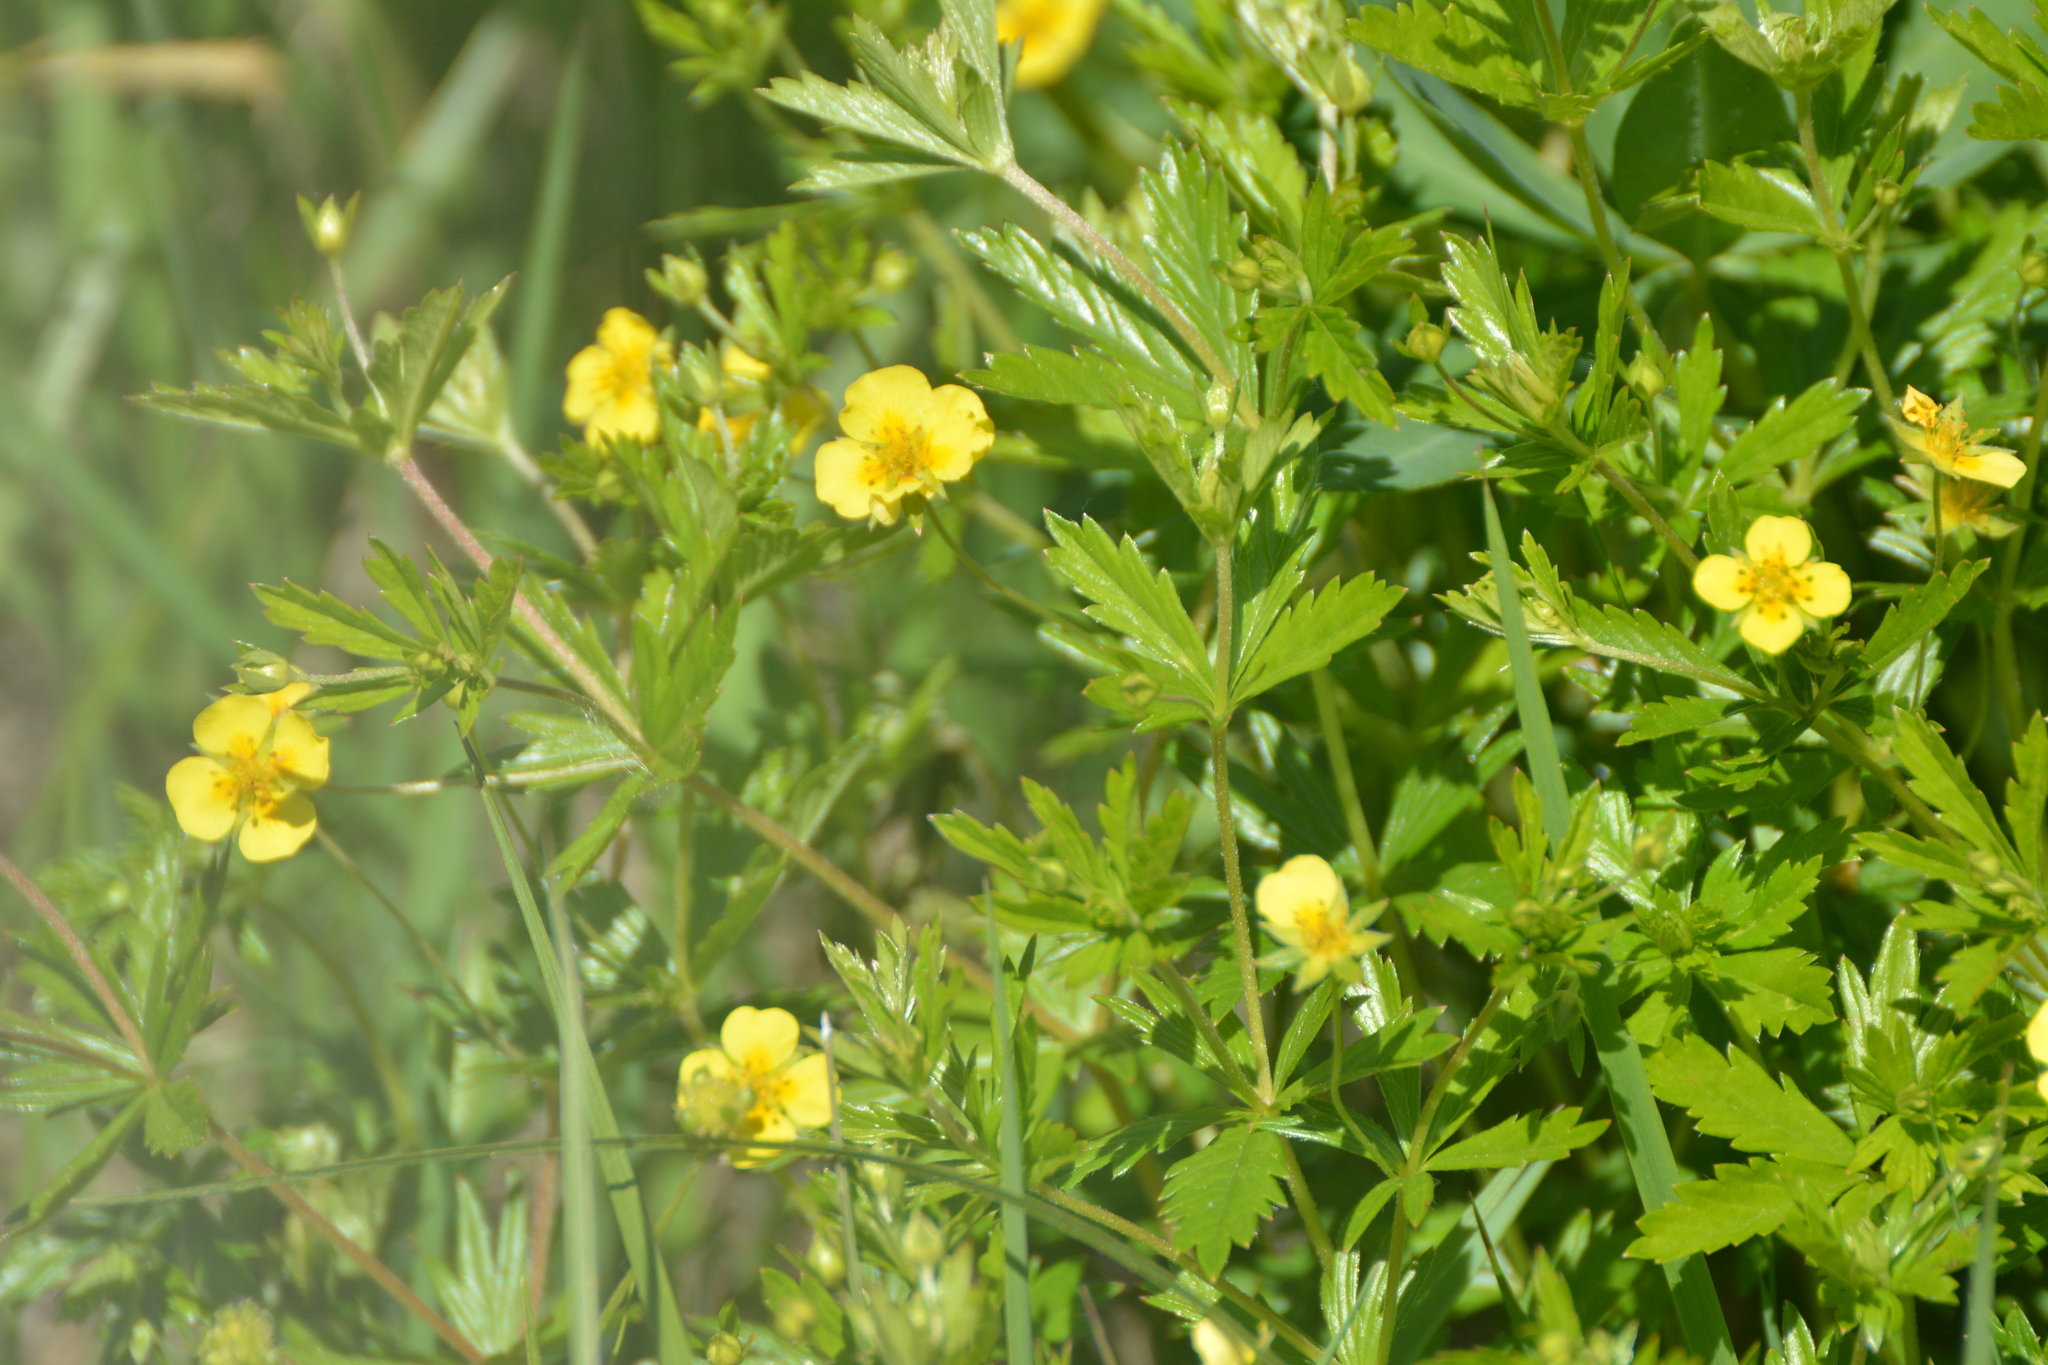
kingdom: Plantae
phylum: Tracheophyta
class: Magnoliopsida
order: Rosales
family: Rosaceae
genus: Potentilla
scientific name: Potentilla erecta
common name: Tormentil
